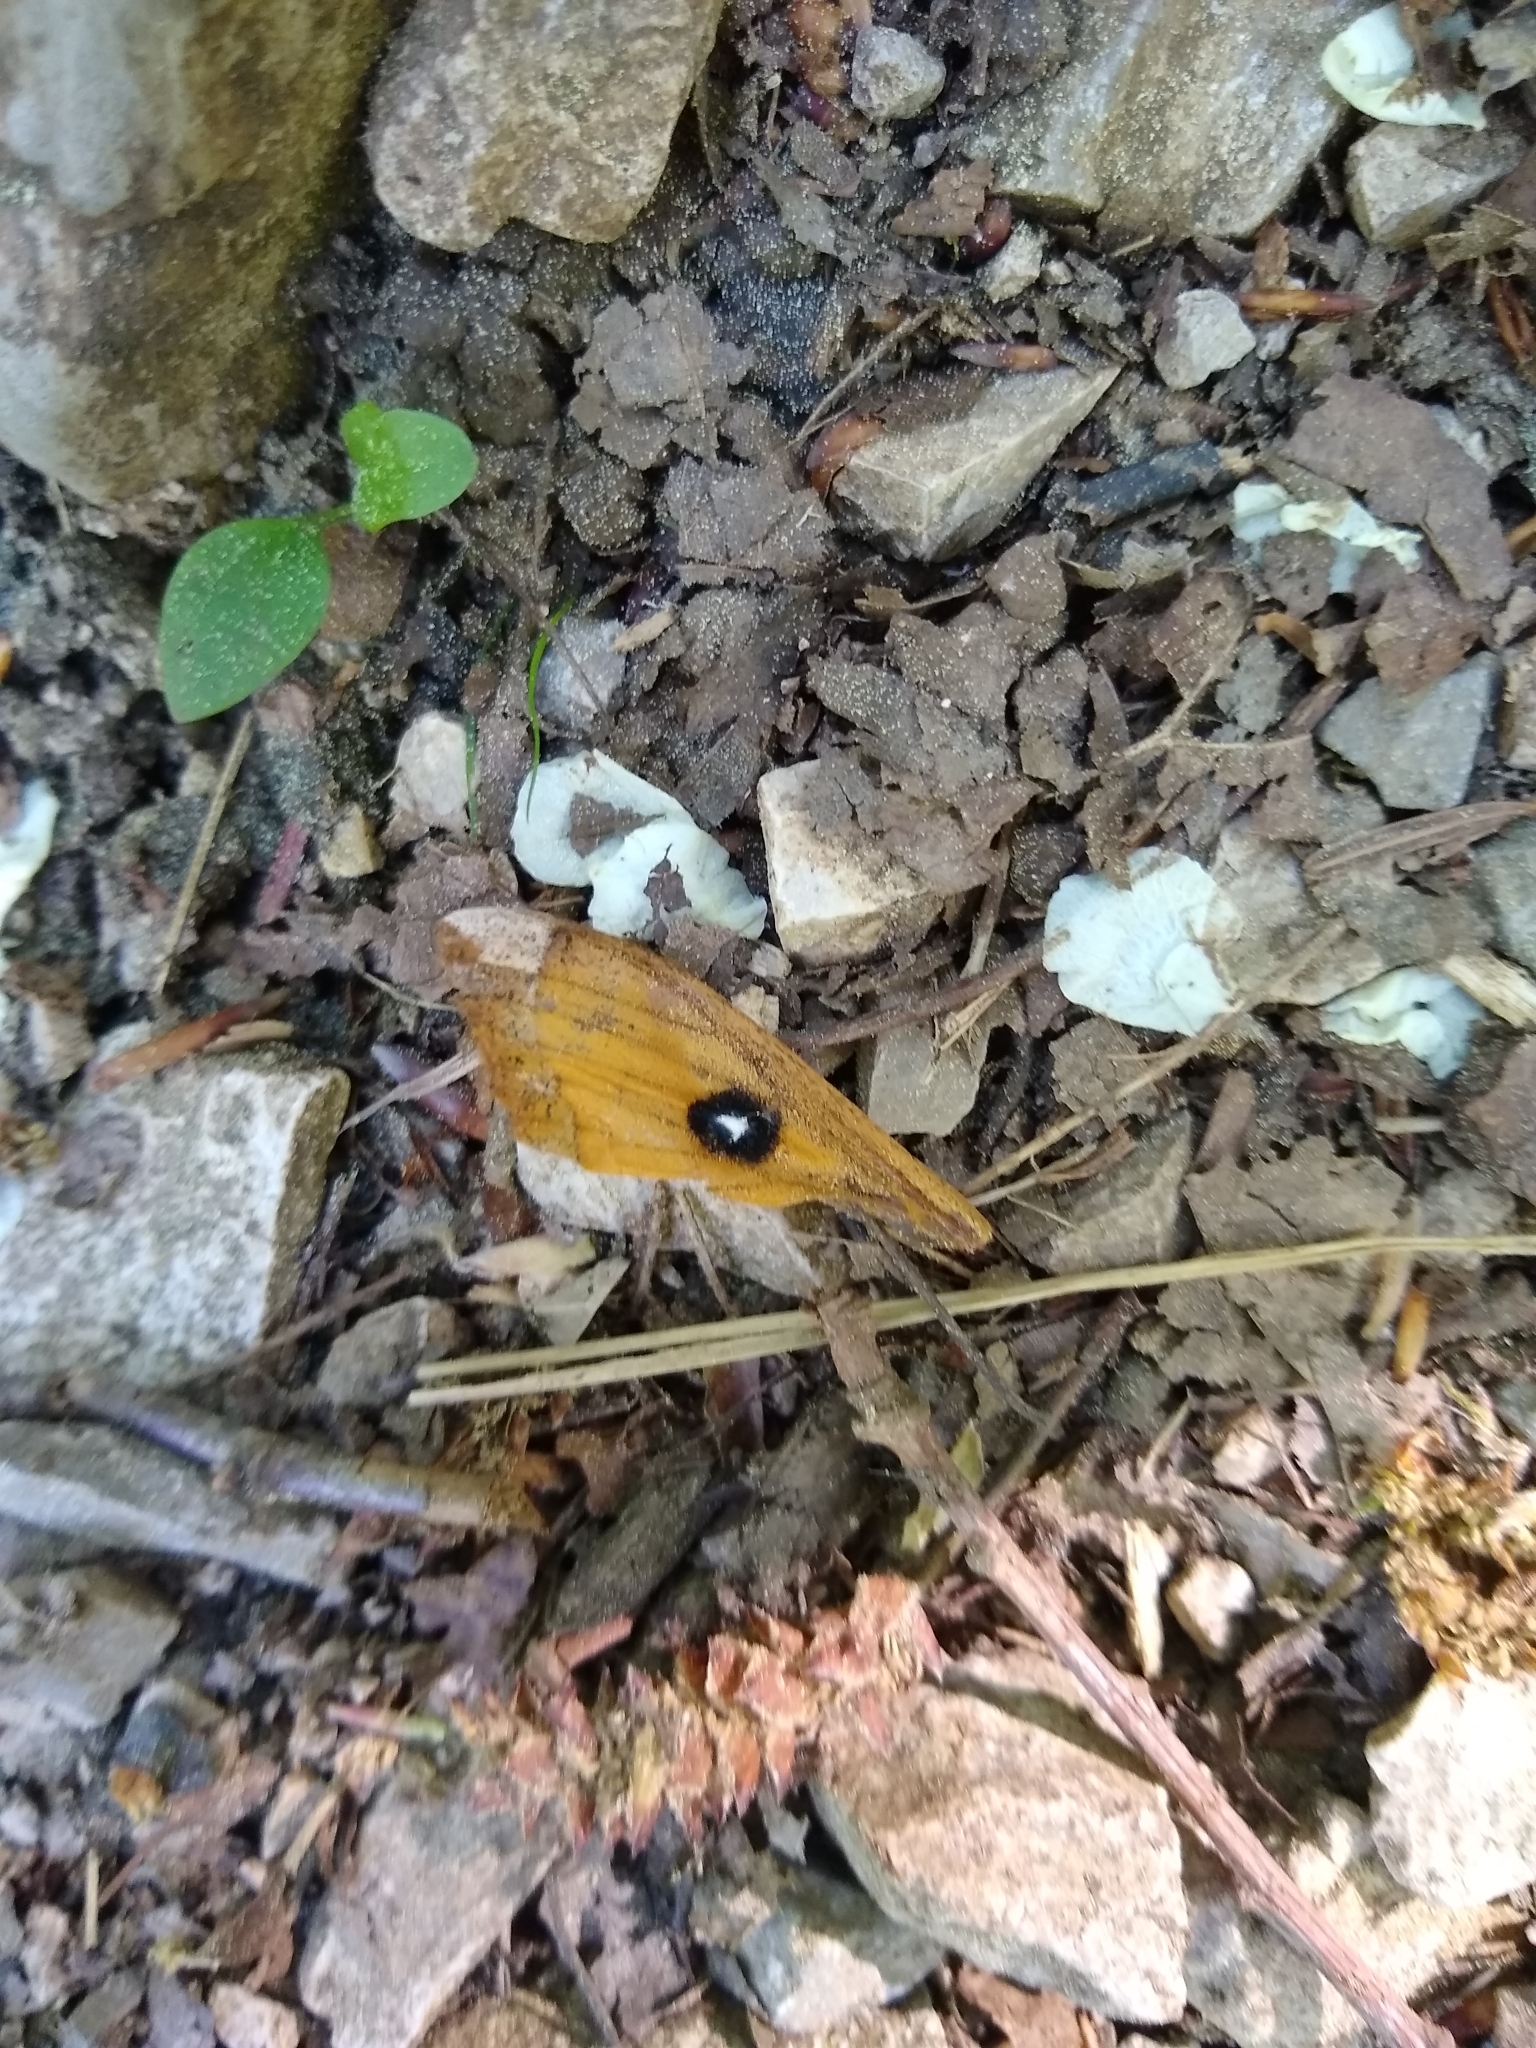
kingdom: Animalia
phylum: Arthropoda
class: Insecta
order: Lepidoptera
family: Saturniidae
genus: Aglia
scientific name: Aglia tau
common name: Tau emperor
